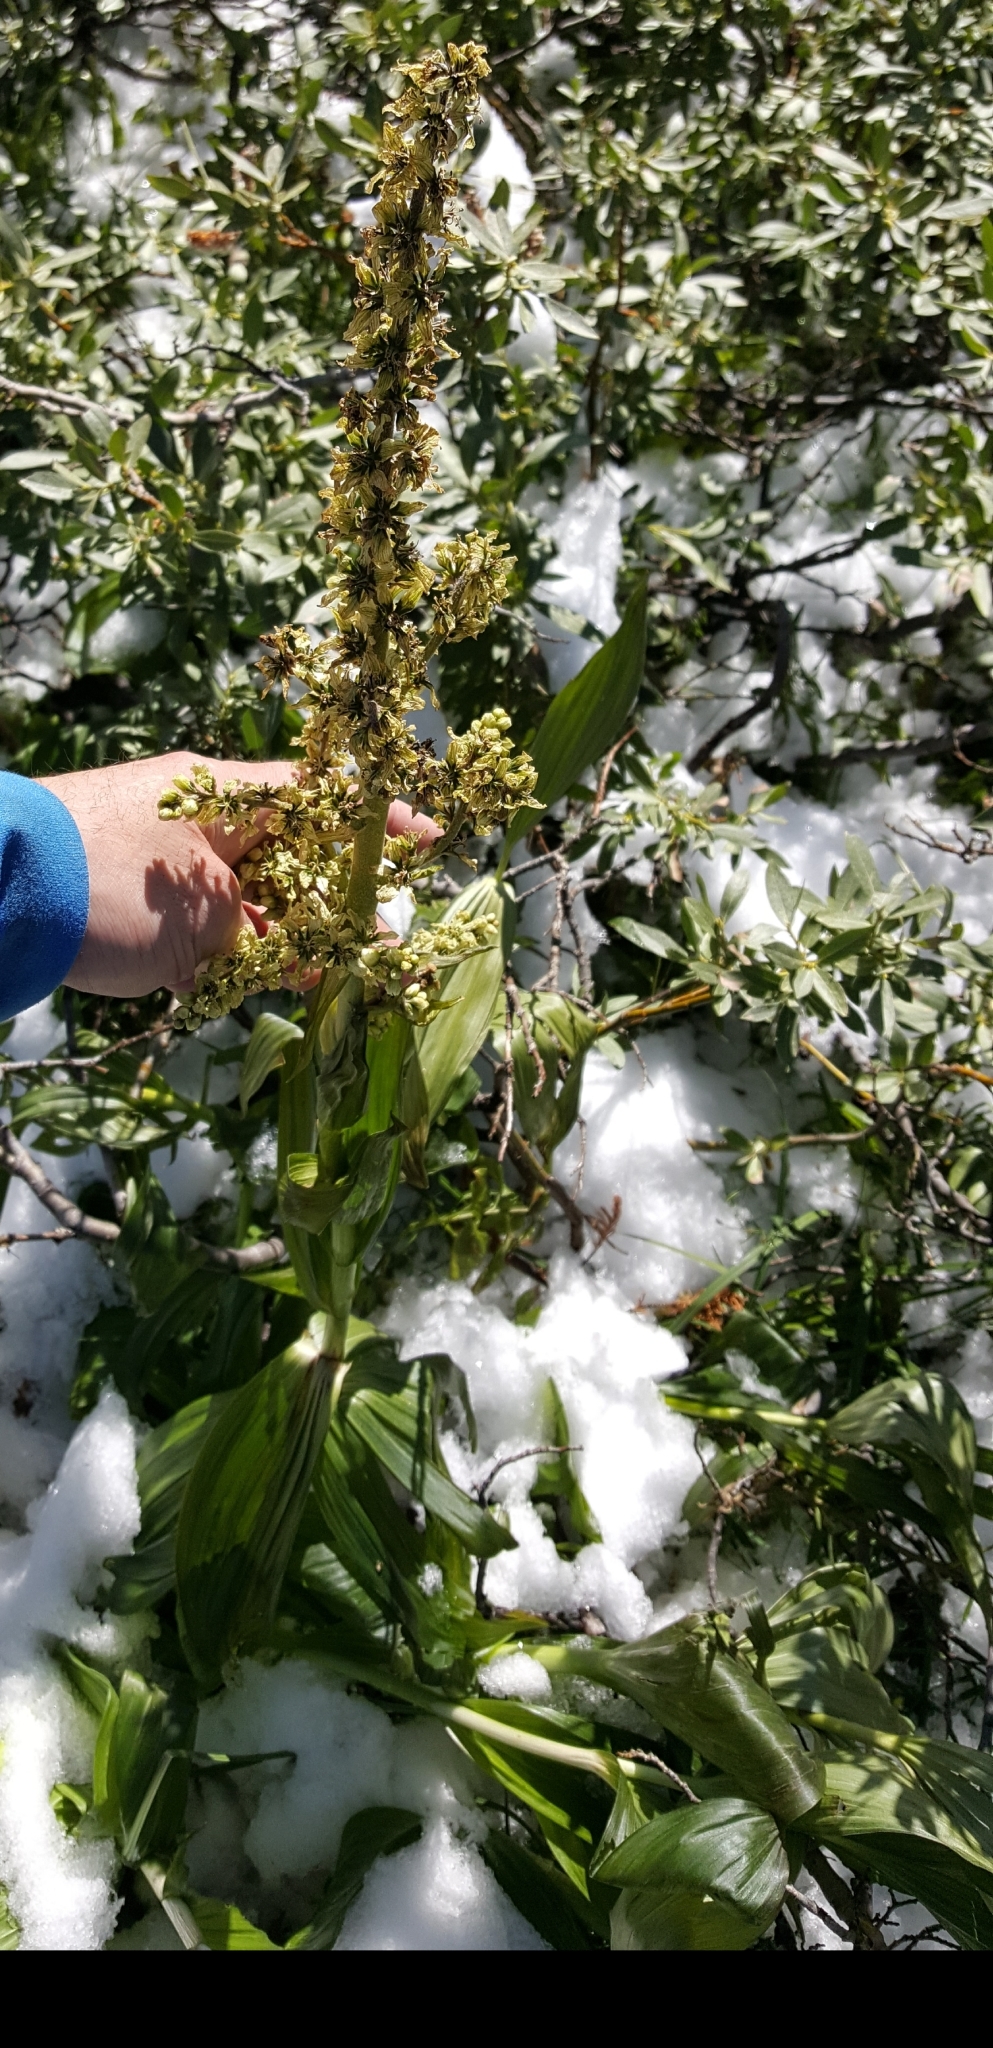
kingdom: Plantae
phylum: Tracheophyta
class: Liliopsida
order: Liliales
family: Melanthiaceae
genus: Veratrum
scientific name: Veratrum californicum
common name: California veratrum
